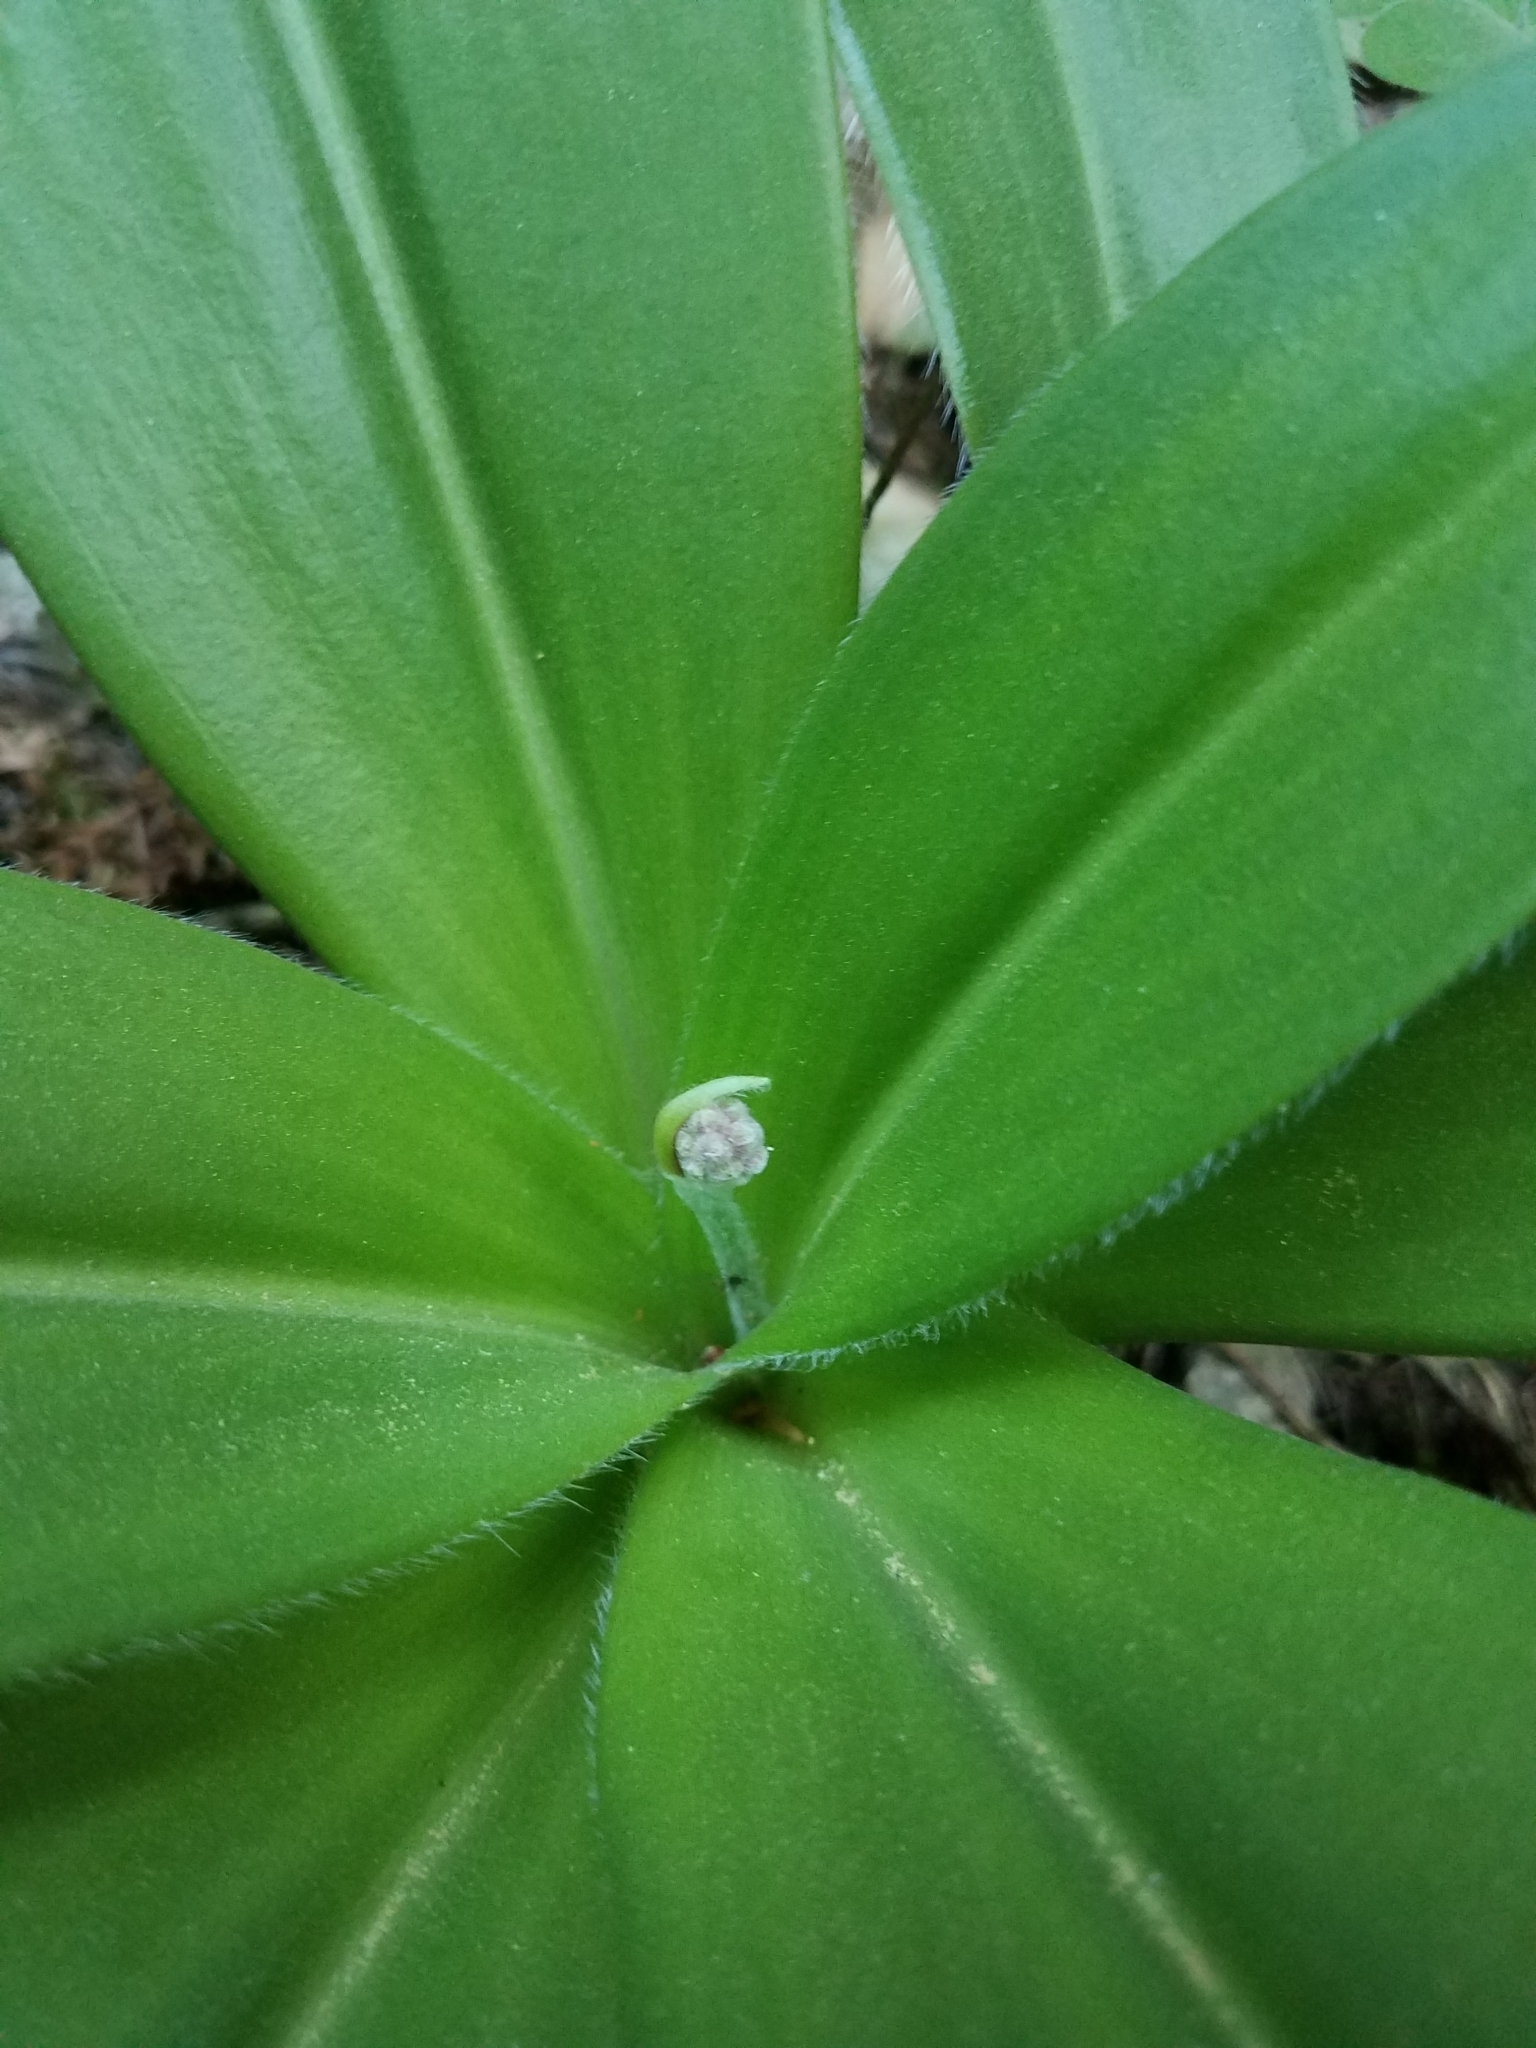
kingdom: Plantae
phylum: Tracheophyta
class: Liliopsida
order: Liliales
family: Liliaceae
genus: Clintonia
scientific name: Clintonia andrewsiana
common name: Red clintonia
